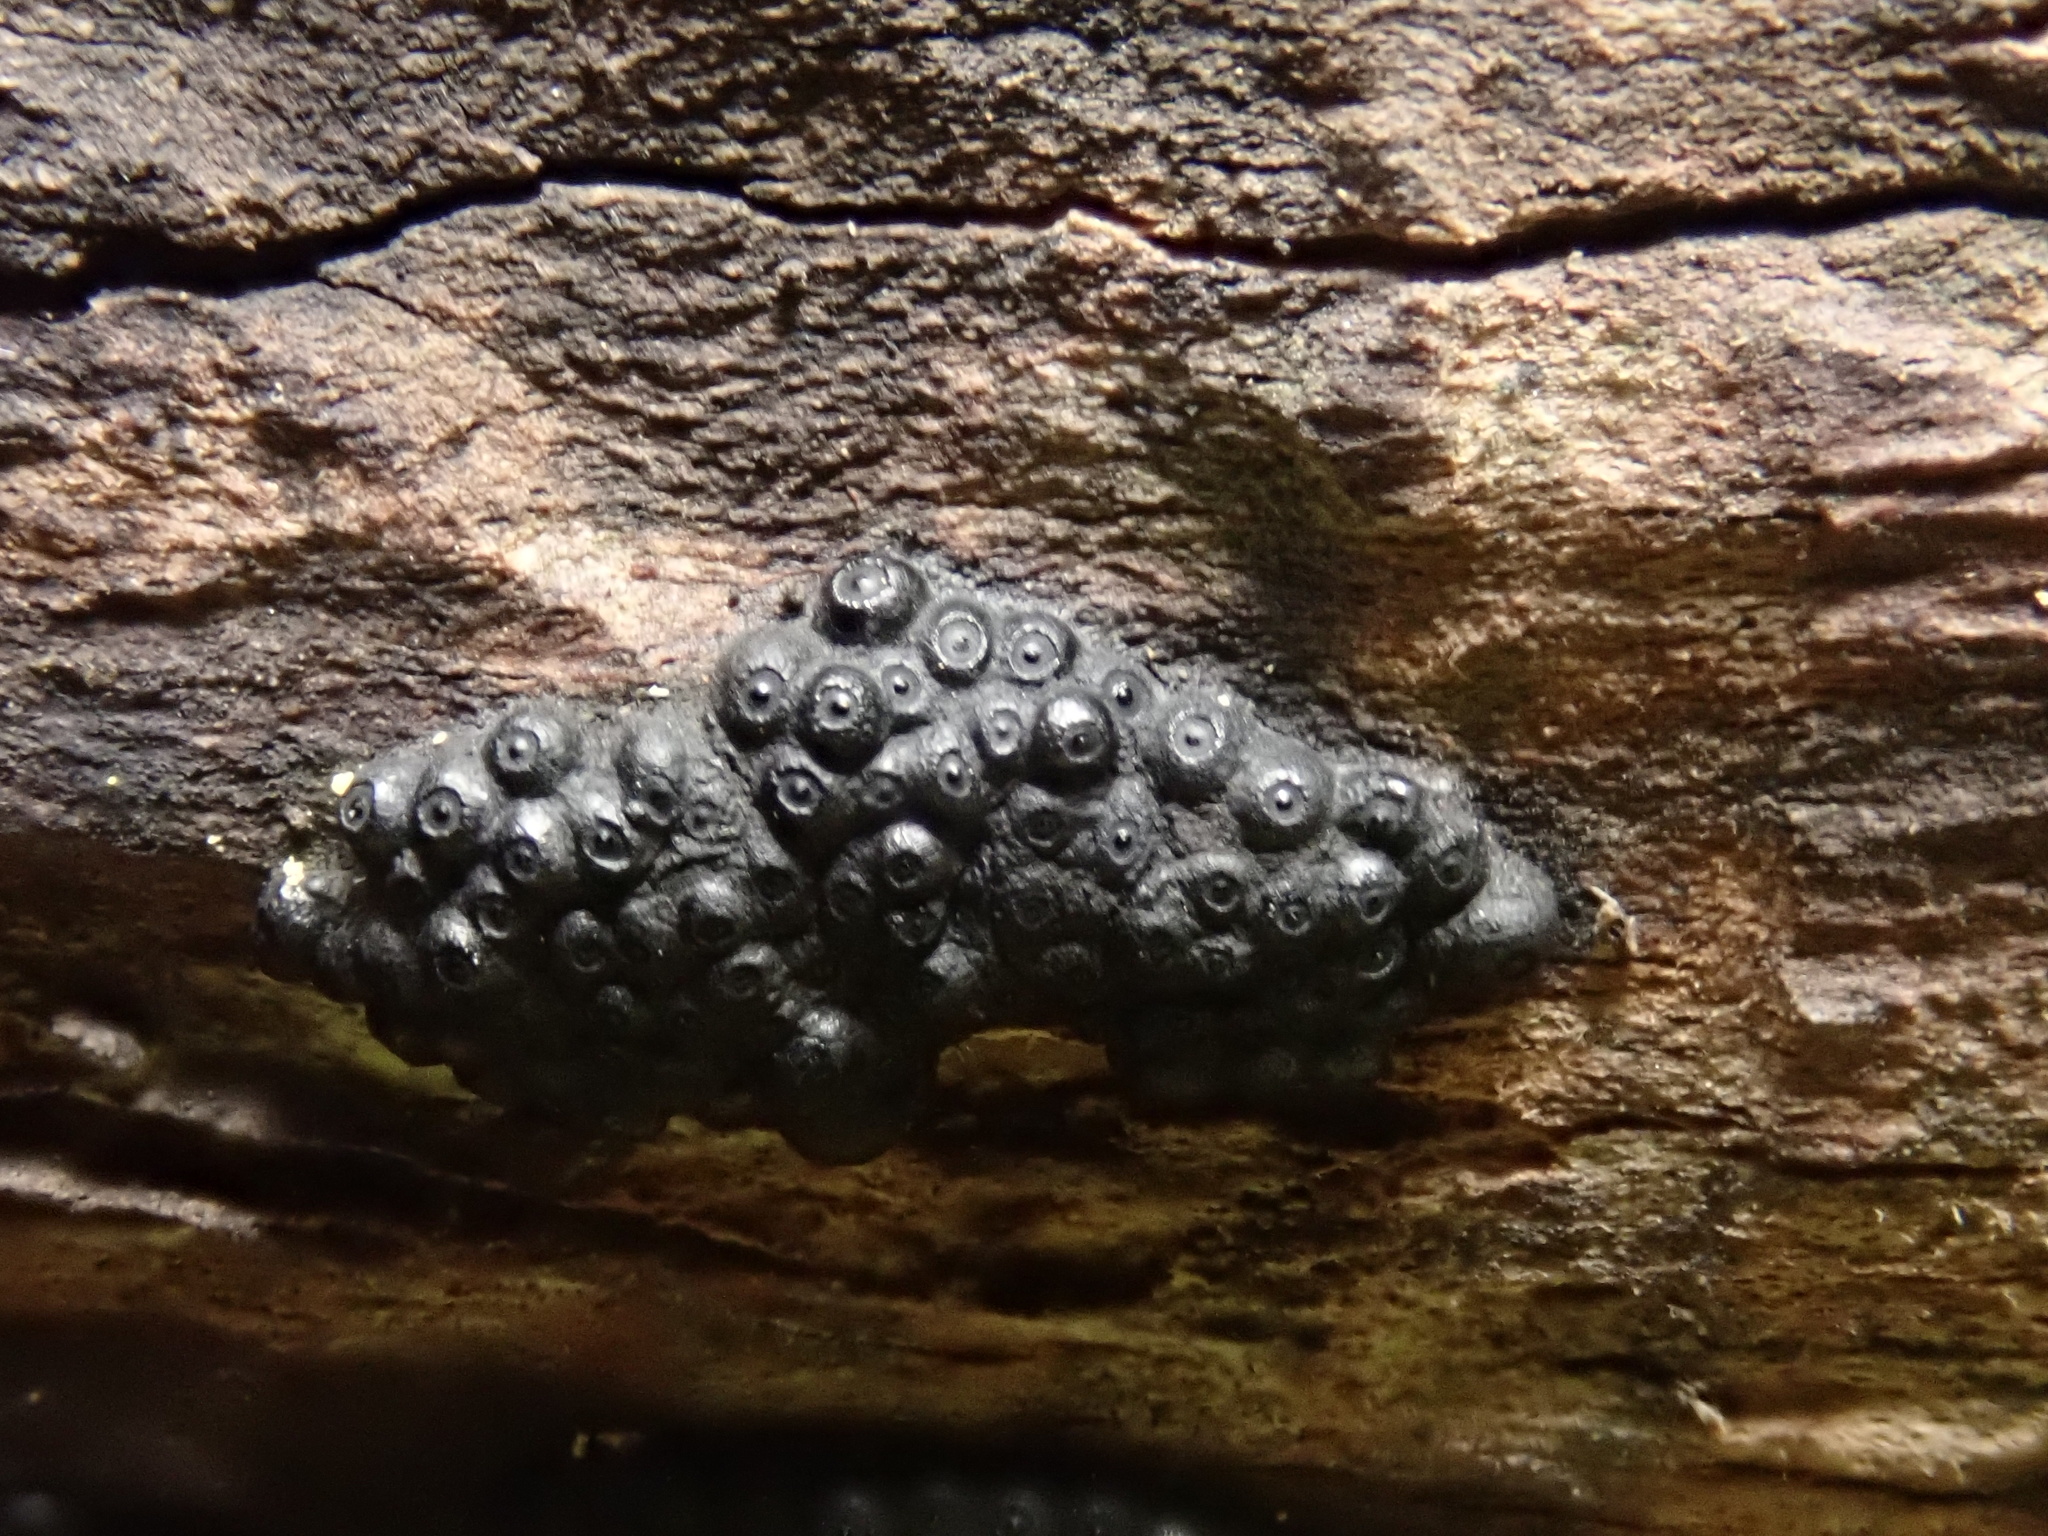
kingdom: Fungi
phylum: Ascomycota
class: Sordariomycetes
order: Xylariales
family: Hypoxylaceae
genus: Annulohypoxylon
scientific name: Annulohypoxylon bovei
